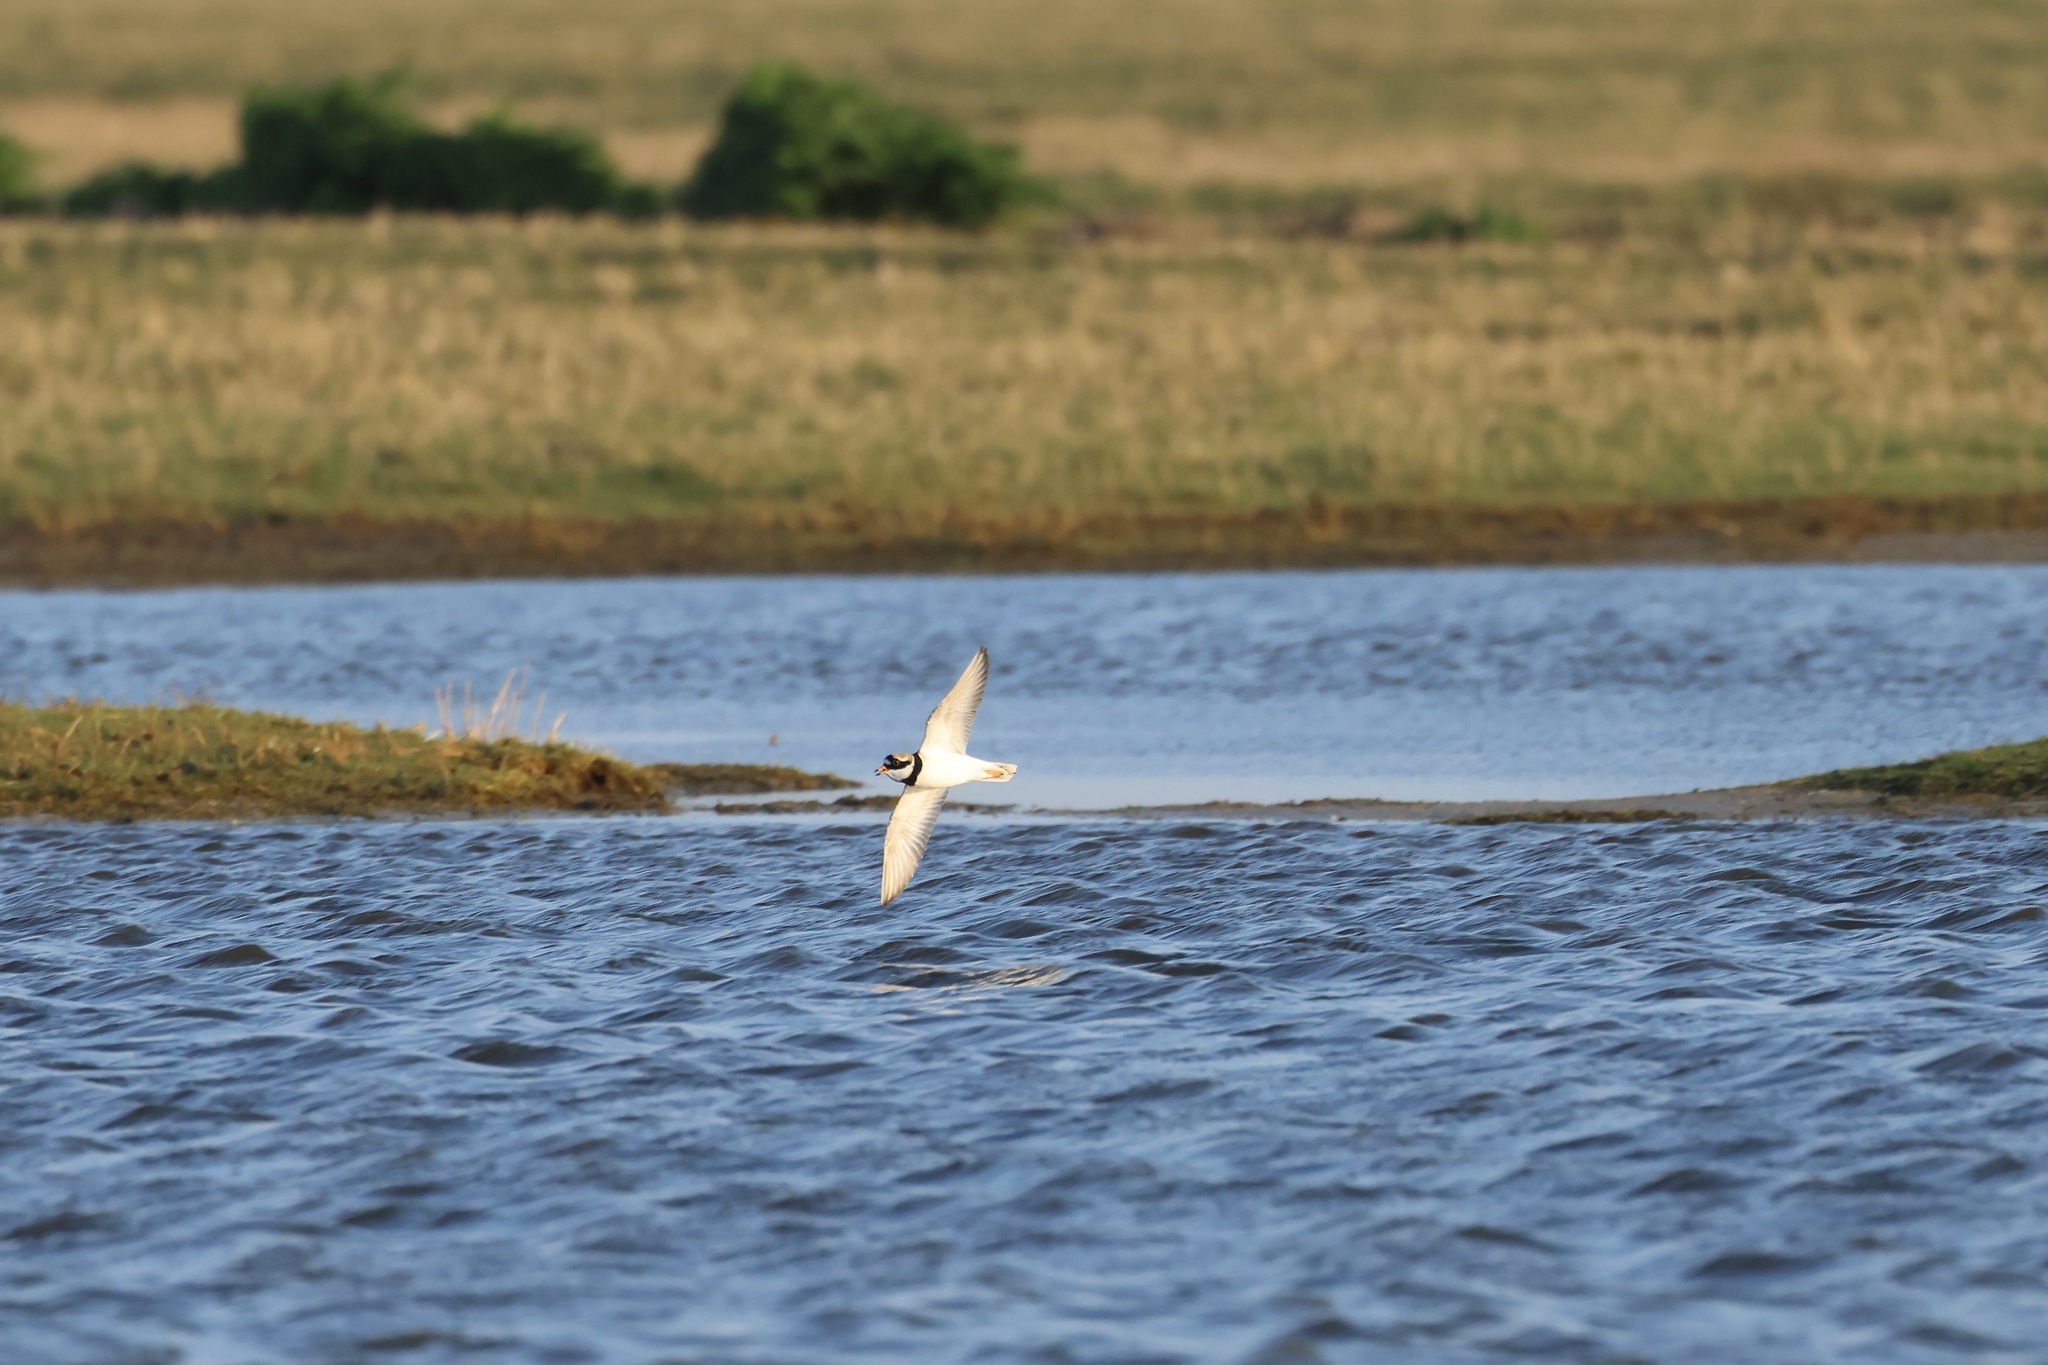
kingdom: Animalia
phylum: Chordata
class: Aves
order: Charadriiformes
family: Charadriidae
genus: Charadrius
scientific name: Charadrius hiaticula
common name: Common ringed plover
